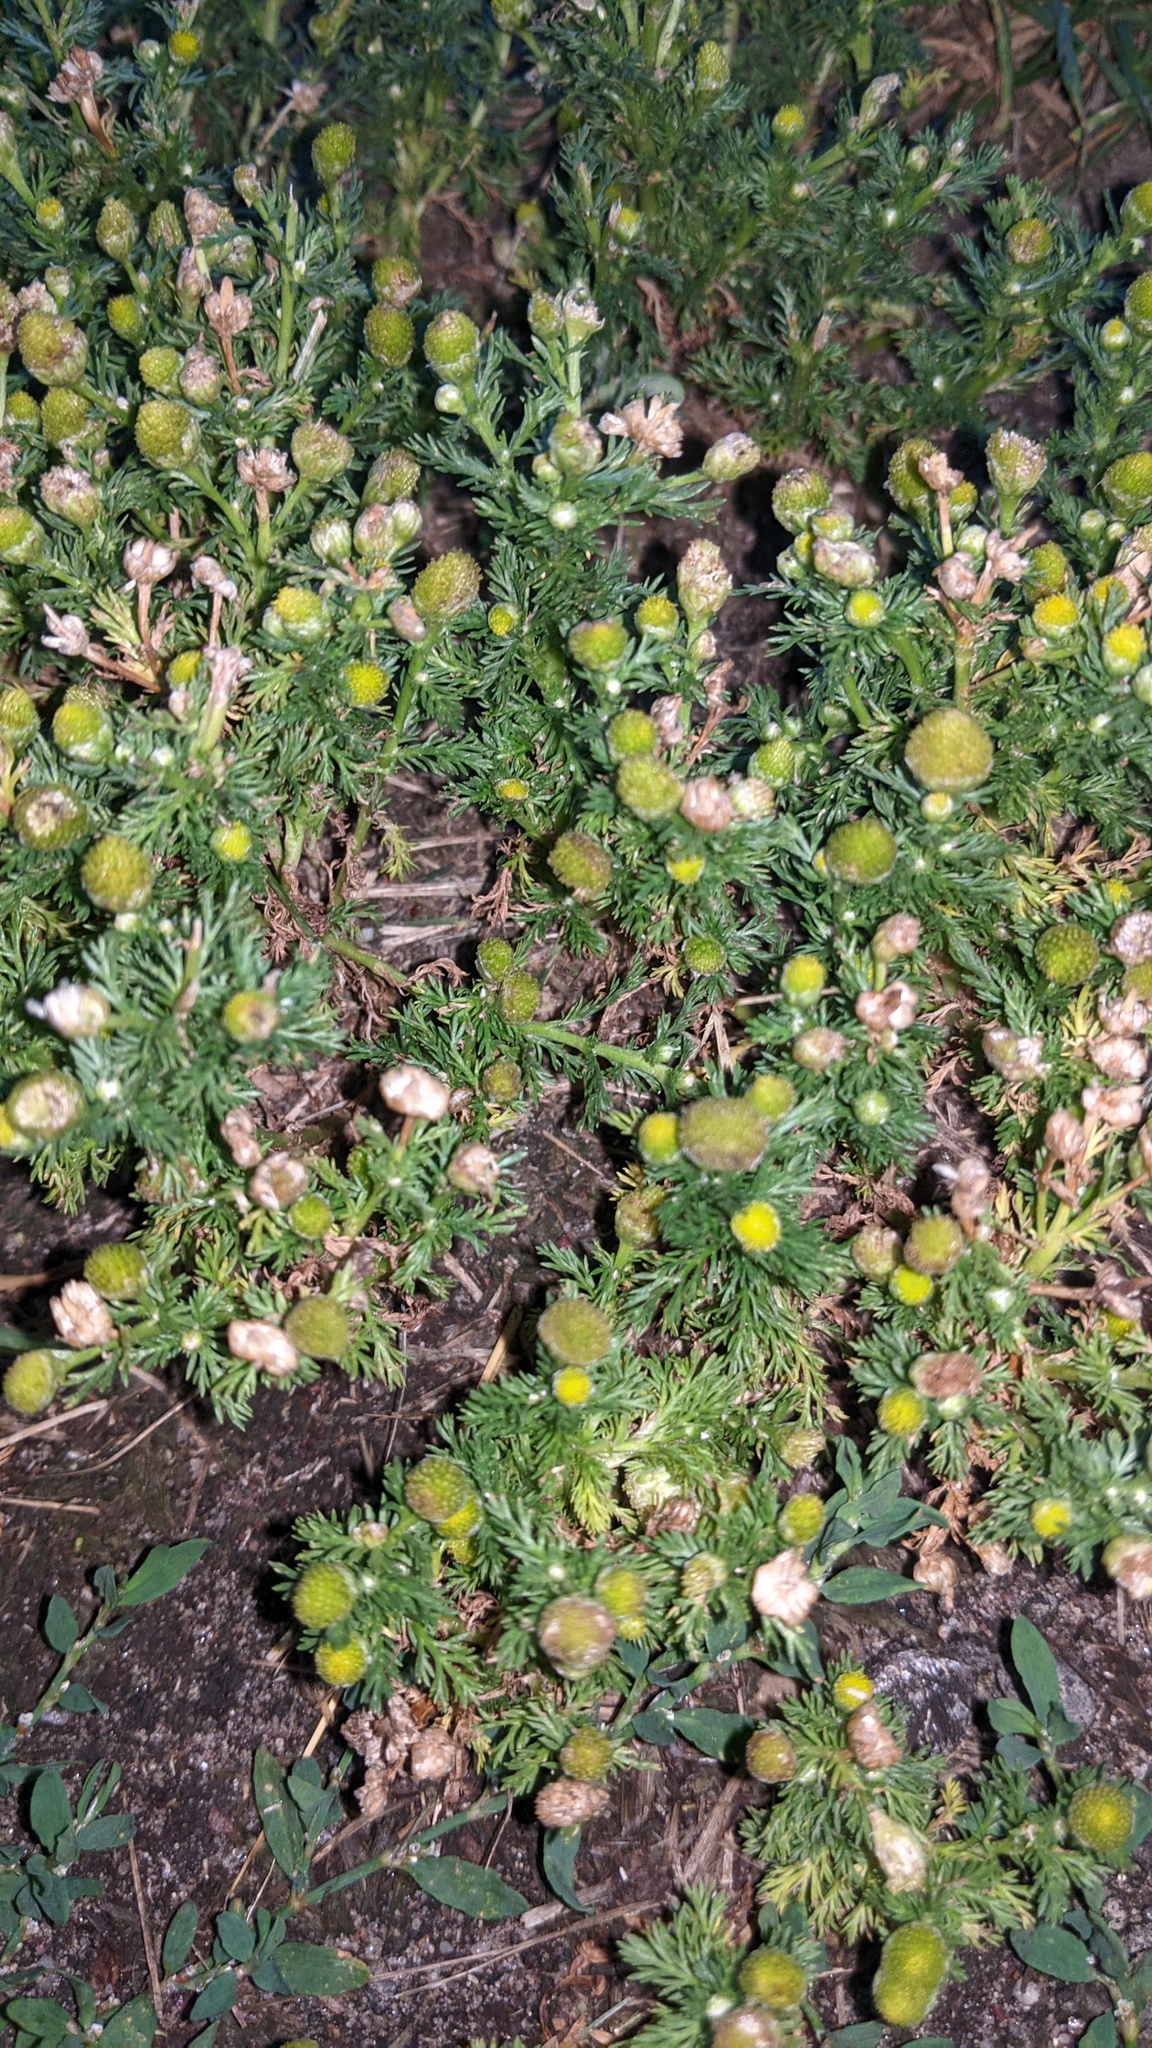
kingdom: Plantae
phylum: Tracheophyta
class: Magnoliopsida
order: Asterales
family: Asteraceae
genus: Matricaria
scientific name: Matricaria discoidea
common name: Disc mayweed
